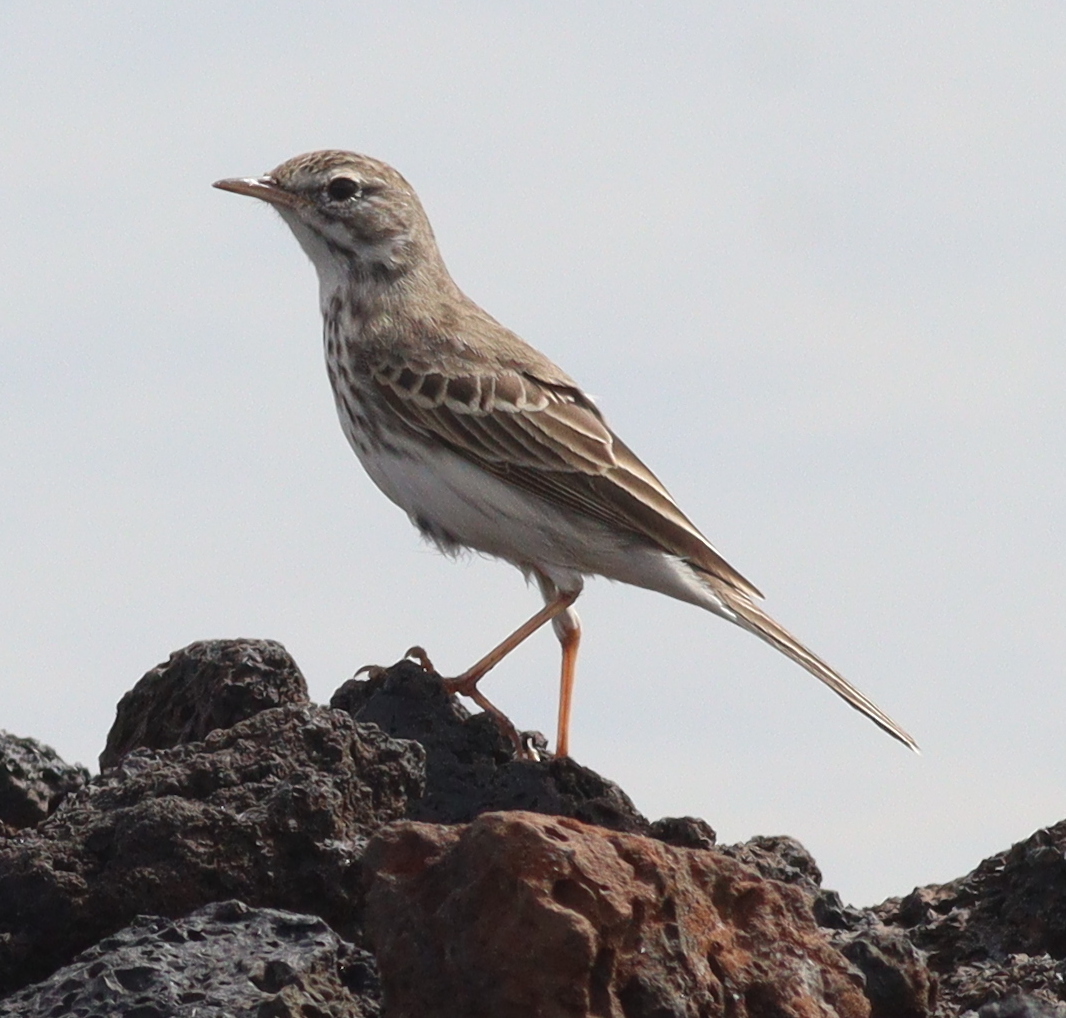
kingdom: Animalia
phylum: Chordata
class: Aves
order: Passeriformes
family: Motacillidae
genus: Anthus
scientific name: Anthus berthelotii
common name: Berthelot's pipit
